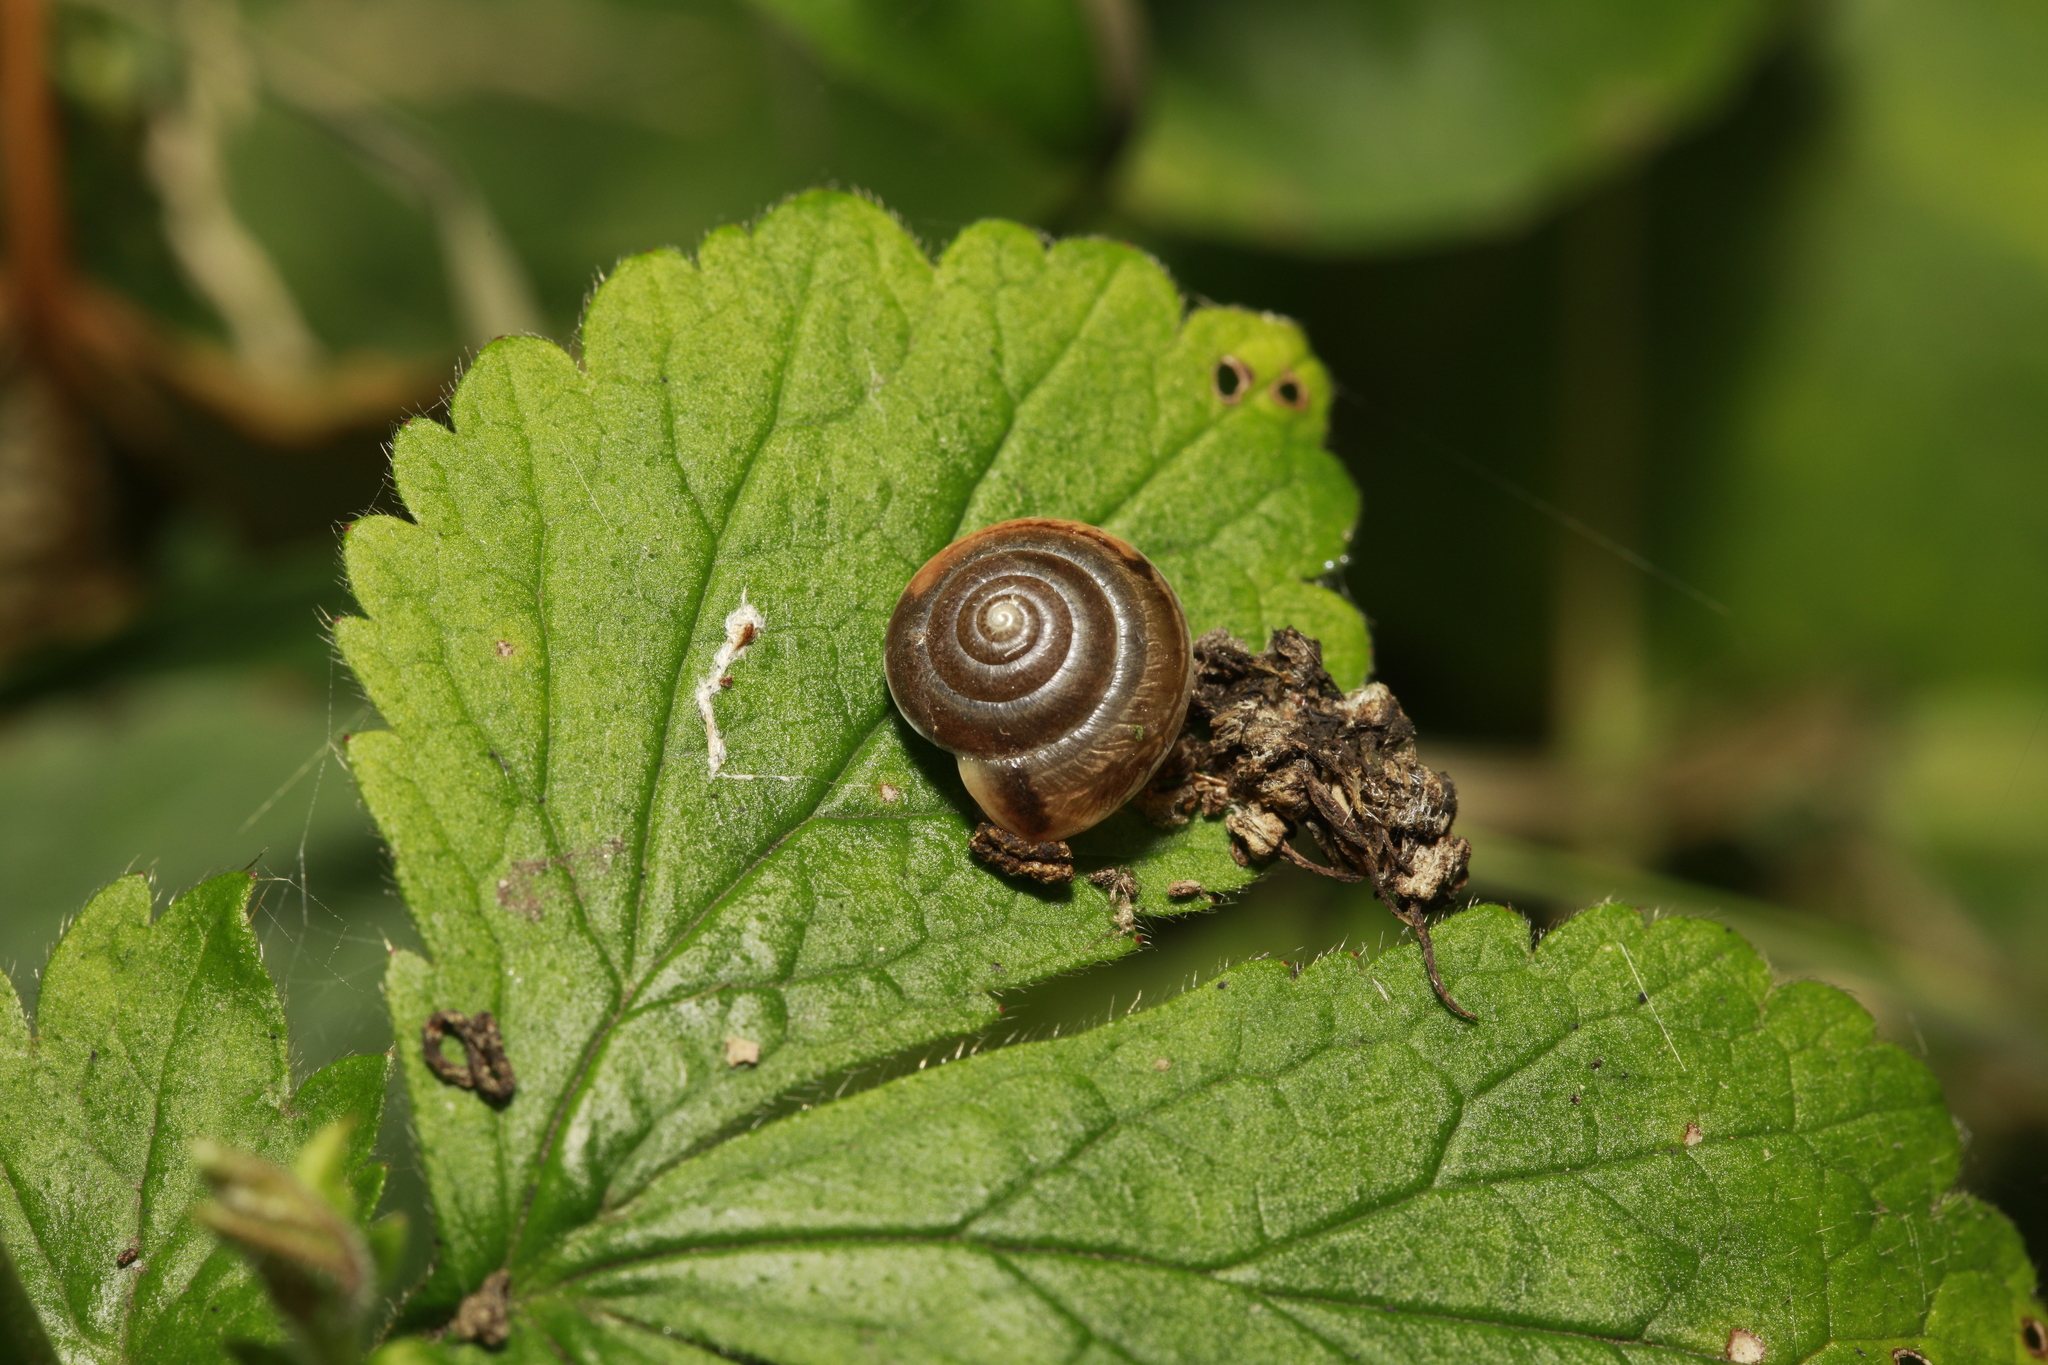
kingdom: Animalia
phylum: Mollusca
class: Gastropoda
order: Stylommatophora
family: Hygromiidae
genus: Hygromia
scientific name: Hygromia cinctella
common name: Girdled snail
